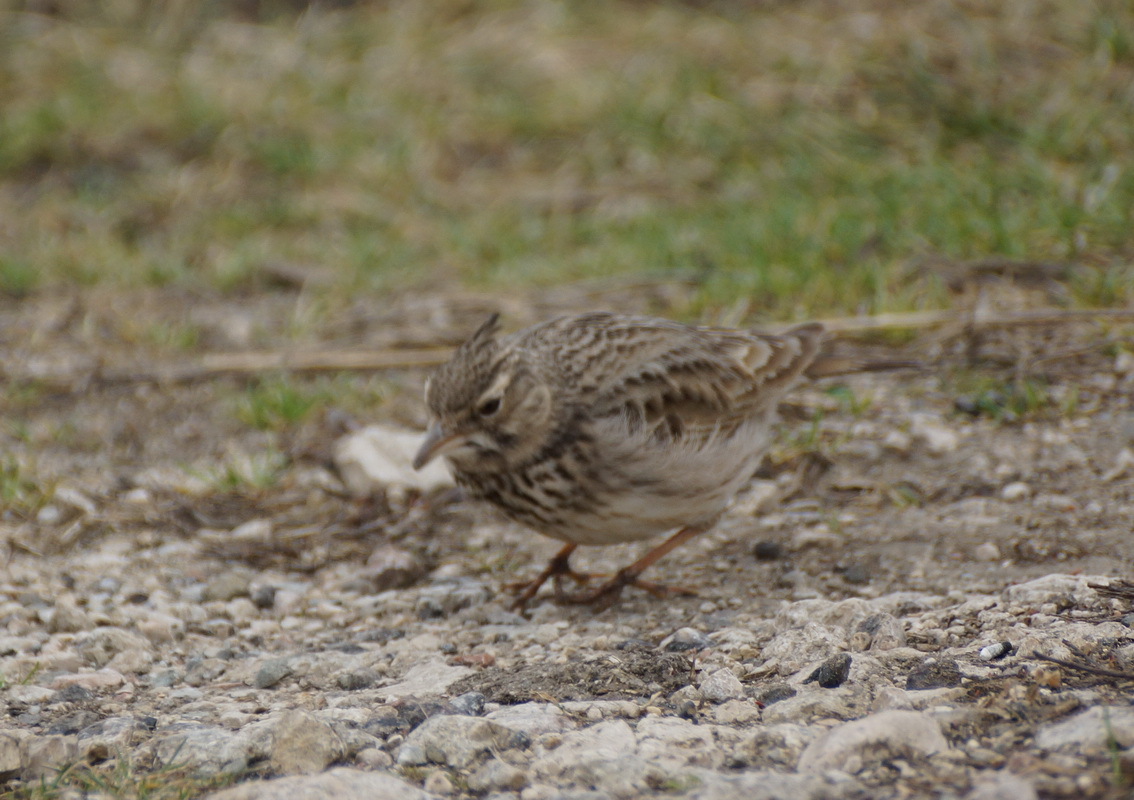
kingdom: Animalia
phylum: Chordata
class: Aves
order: Passeriformes
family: Alaudidae
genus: Galerida
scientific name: Galerida cristata
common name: Crested lark
